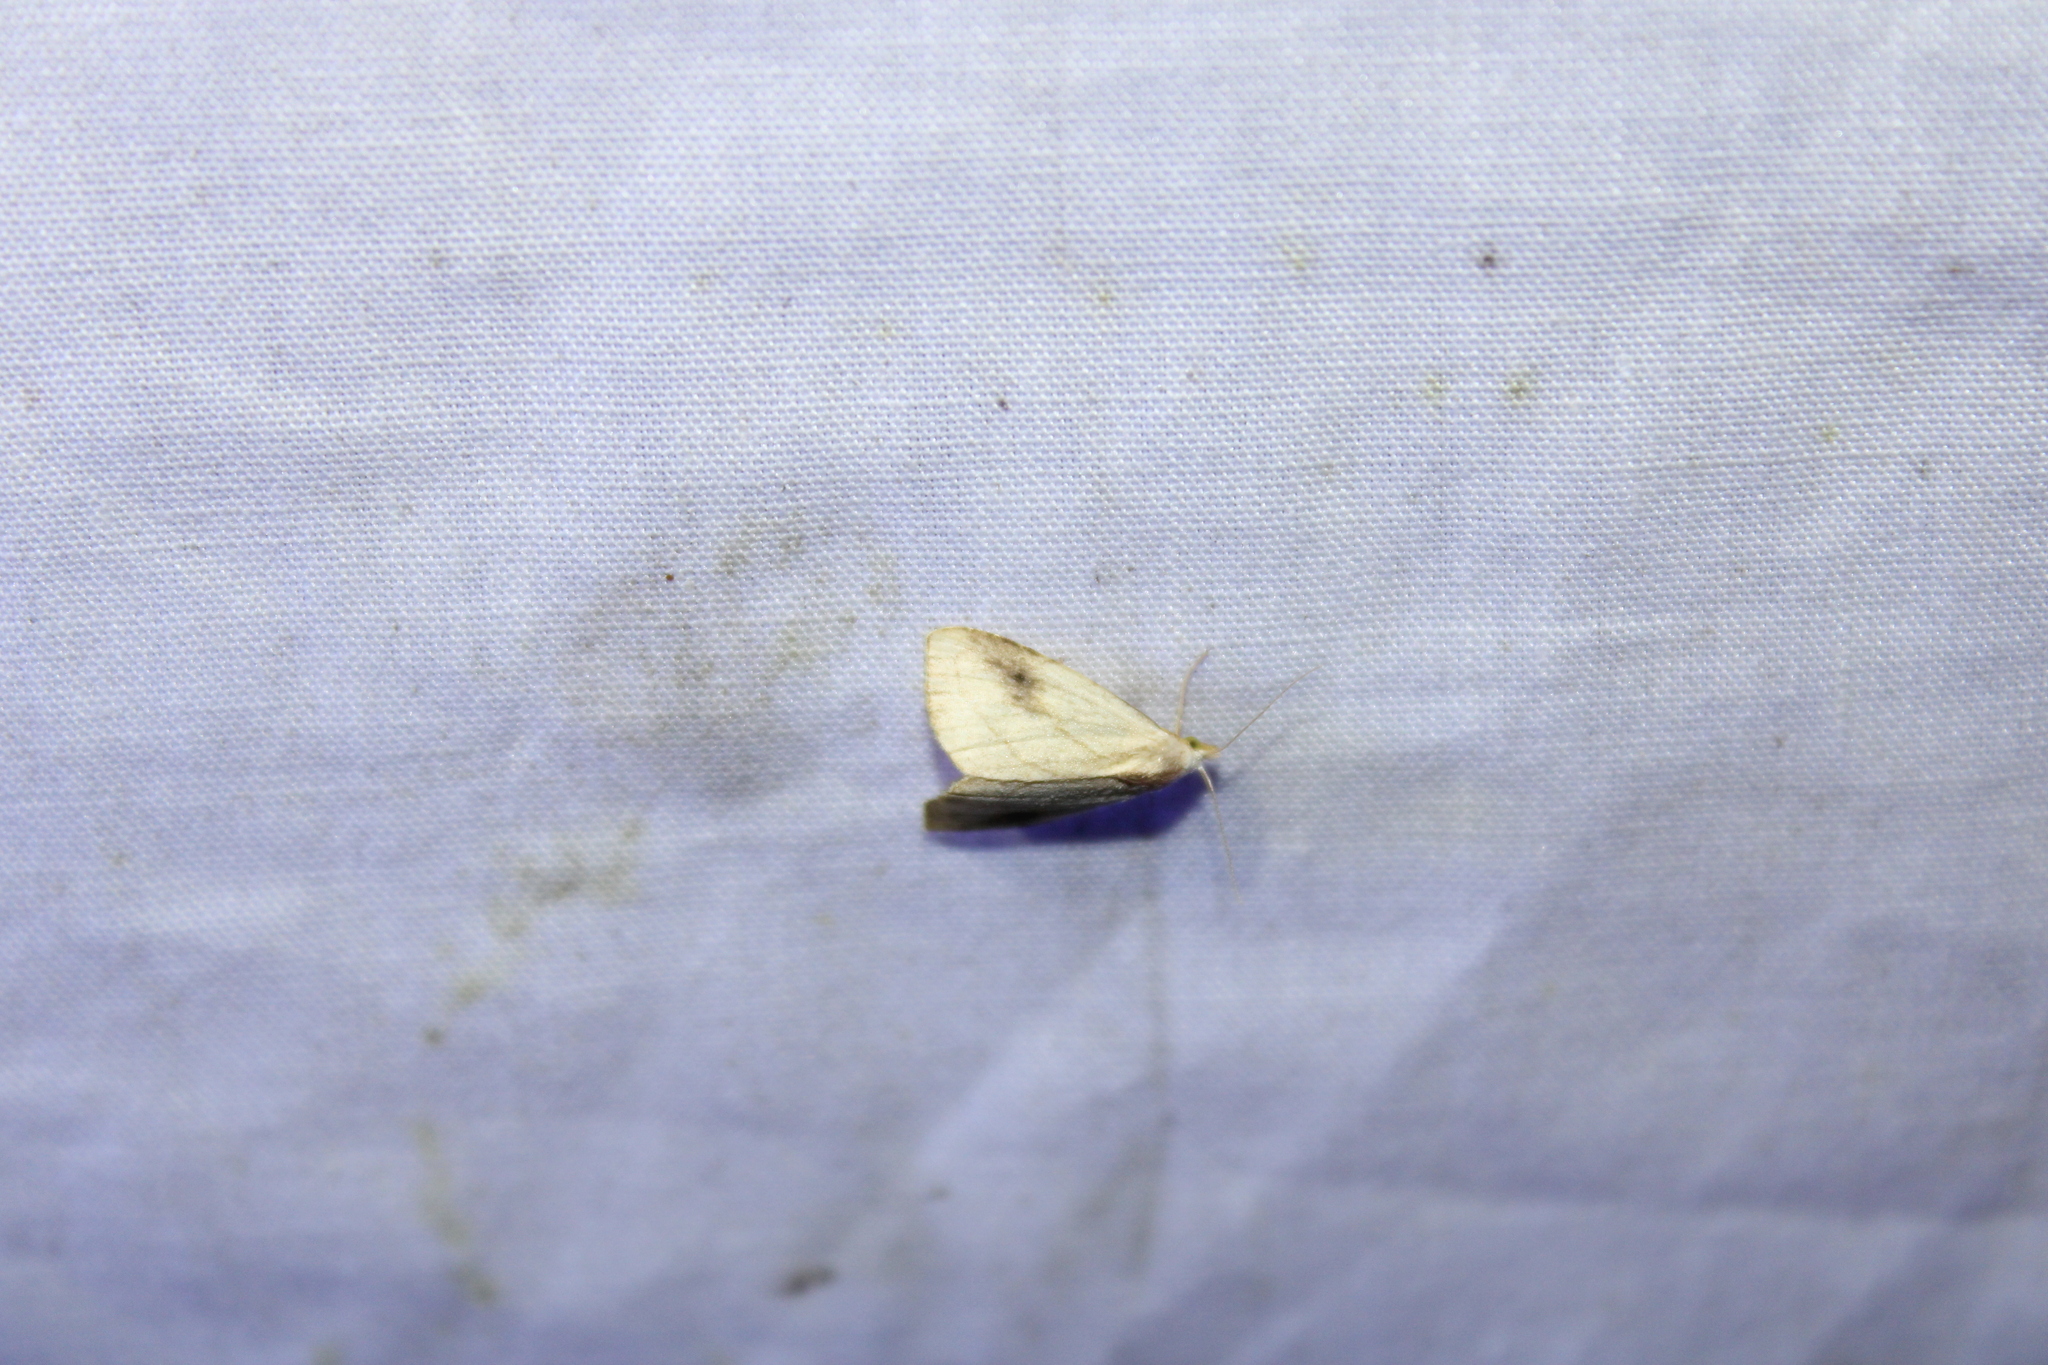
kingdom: Animalia
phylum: Arthropoda
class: Insecta
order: Lepidoptera
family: Erebidae
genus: Rivula
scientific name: Rivula propinqualis
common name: Spotted grass moth
